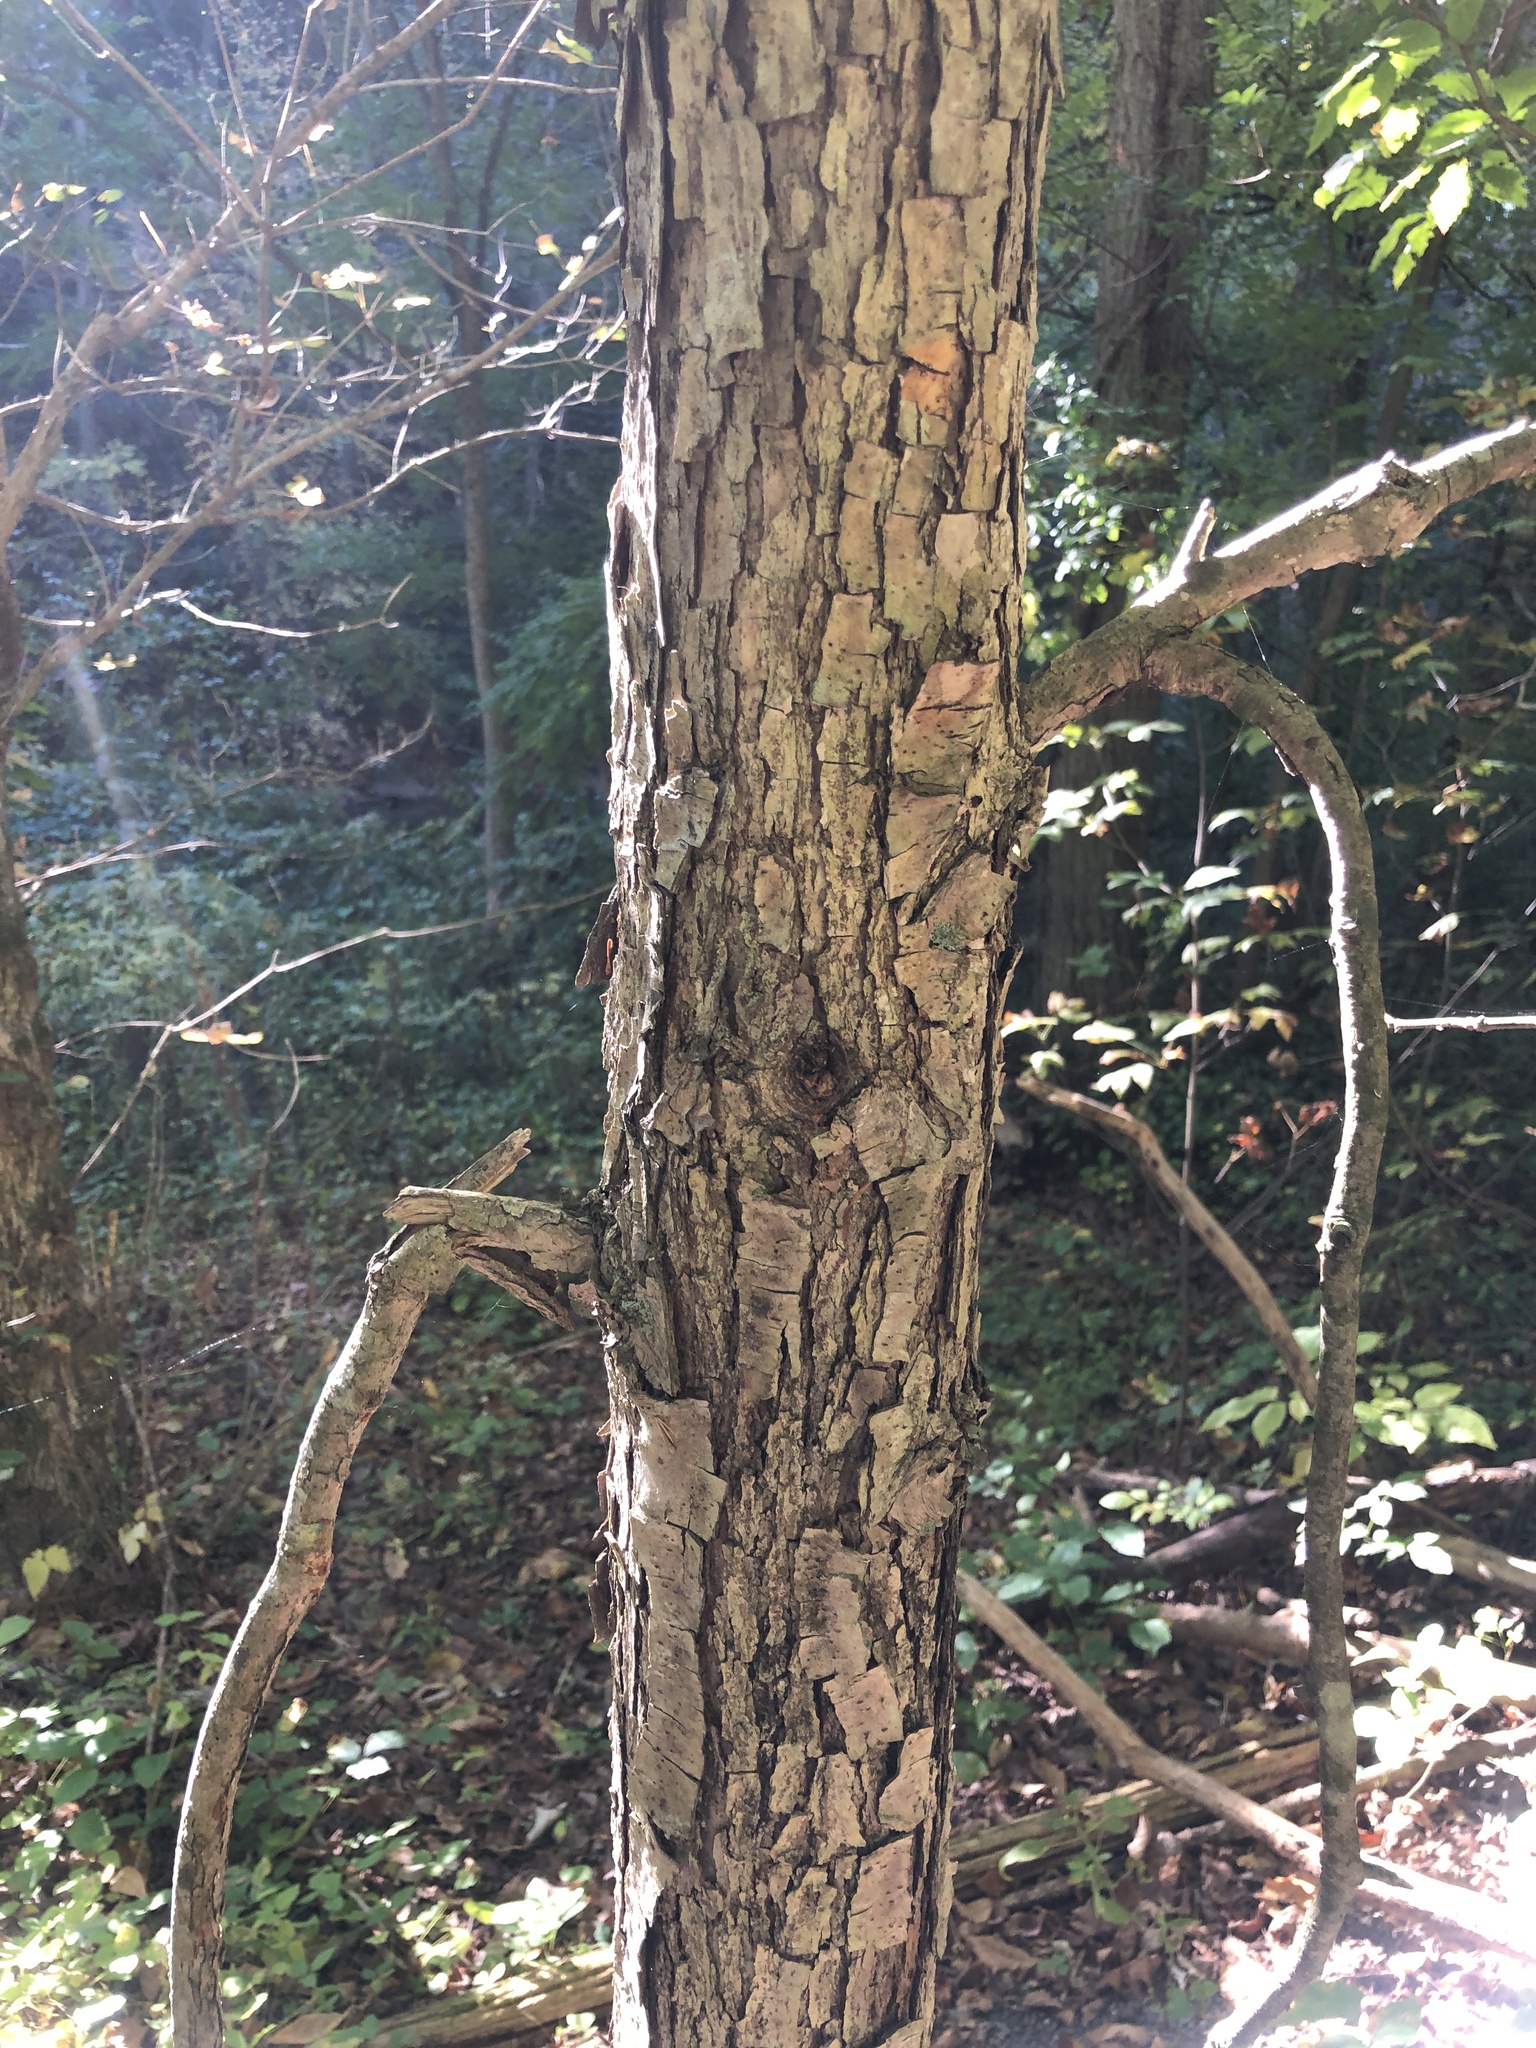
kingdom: Plantae
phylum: Tracheophyta
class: Magnoliopsida
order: Fagales
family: Fagaceae
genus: Quercus
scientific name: Quercus bicolor
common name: Swamp white oak
